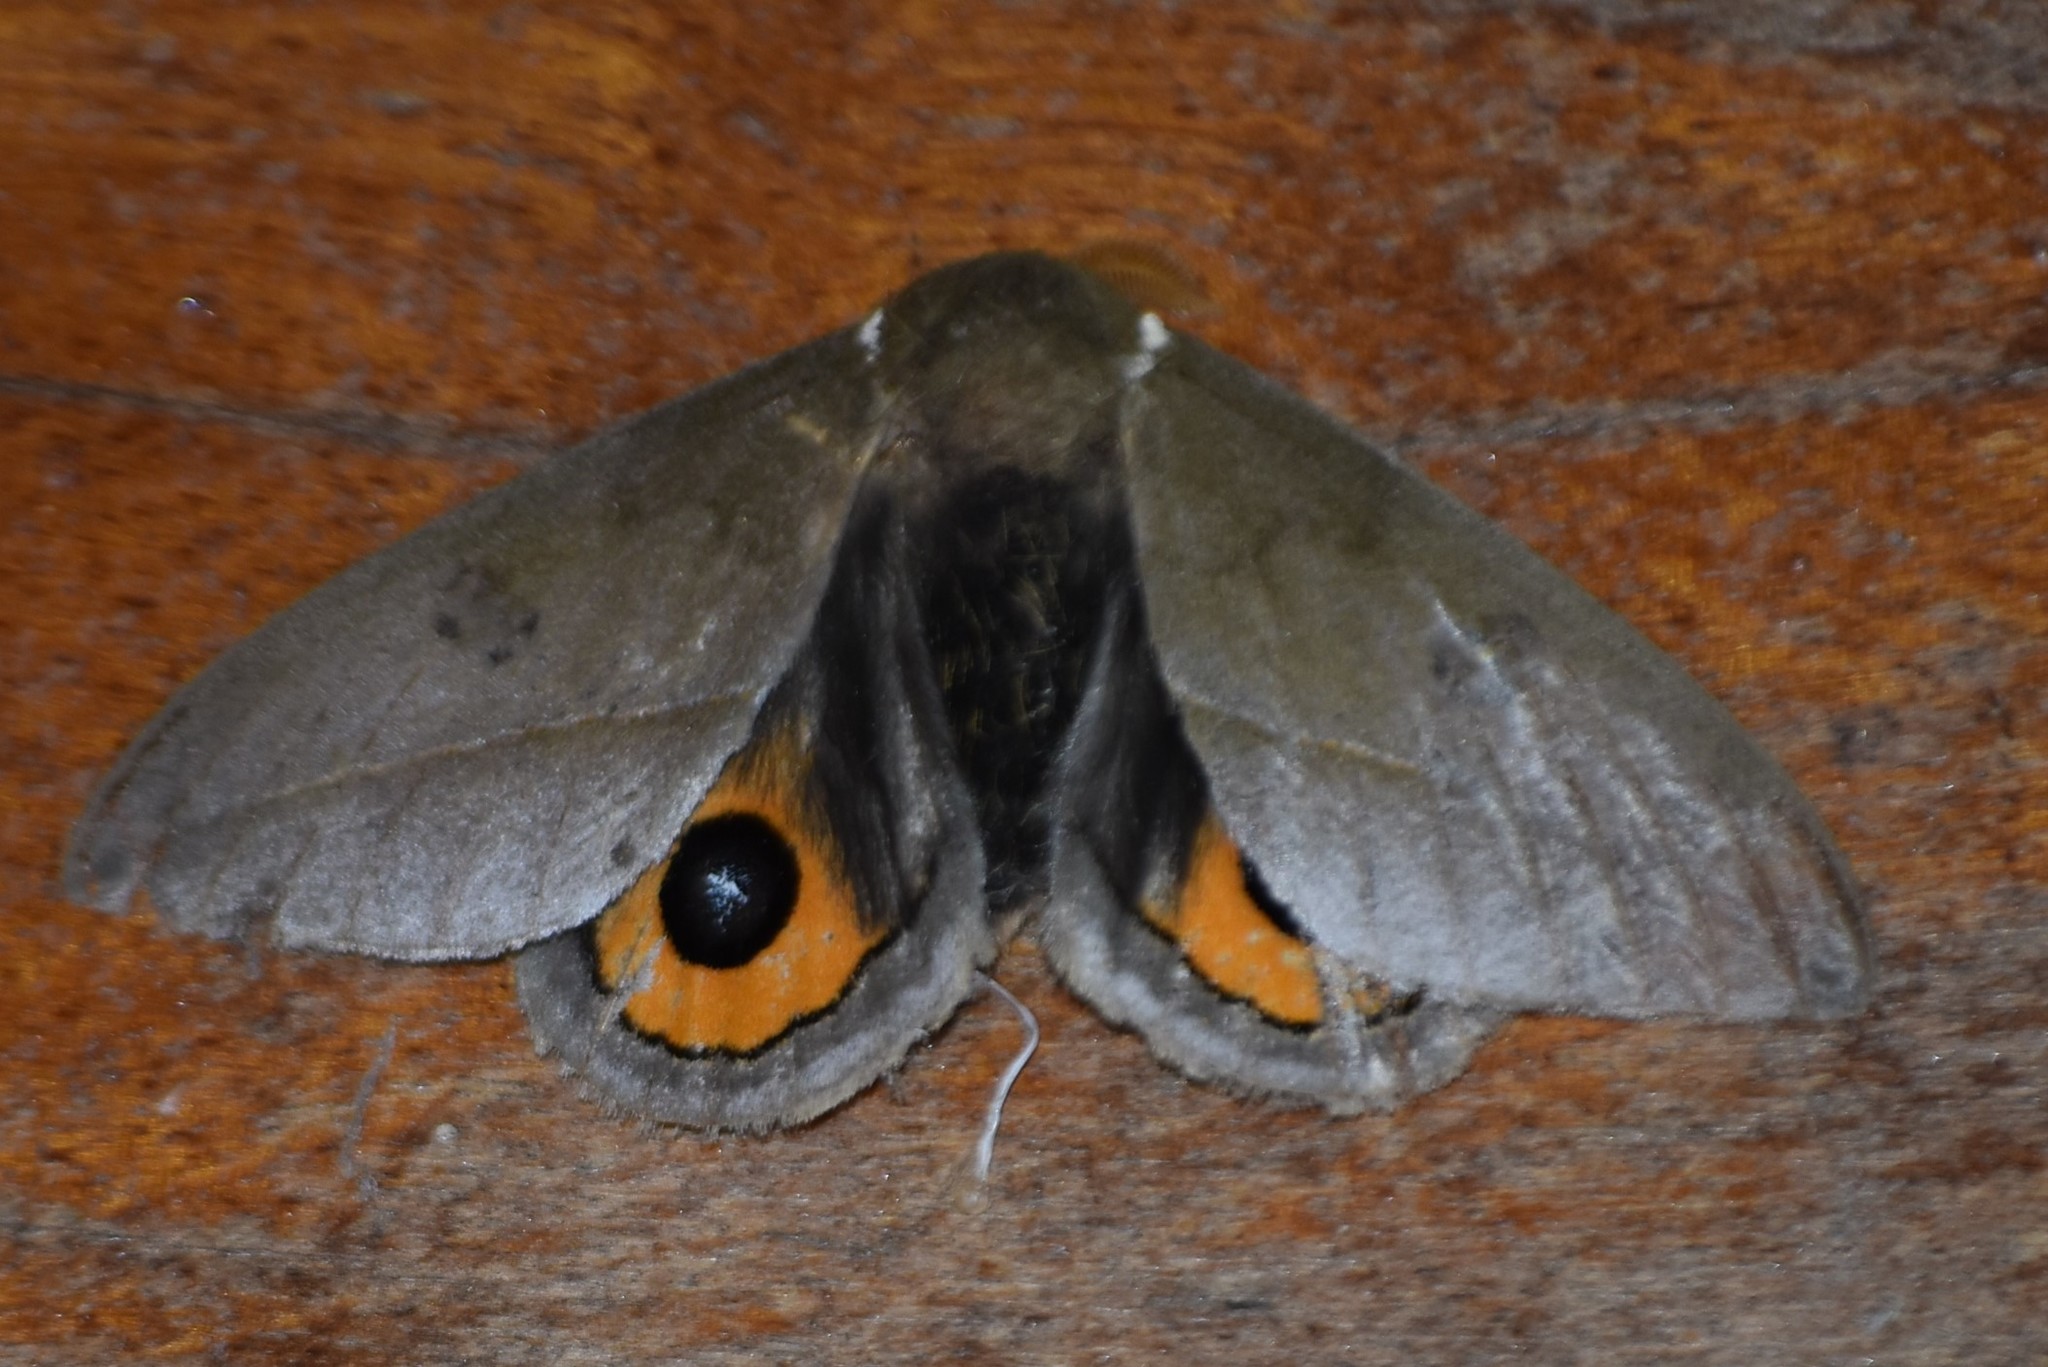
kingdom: Animalia
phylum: Arthropoda
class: Insecta
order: Lepidoptera
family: Saturniidae
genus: Automeris
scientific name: Automeris naranja
